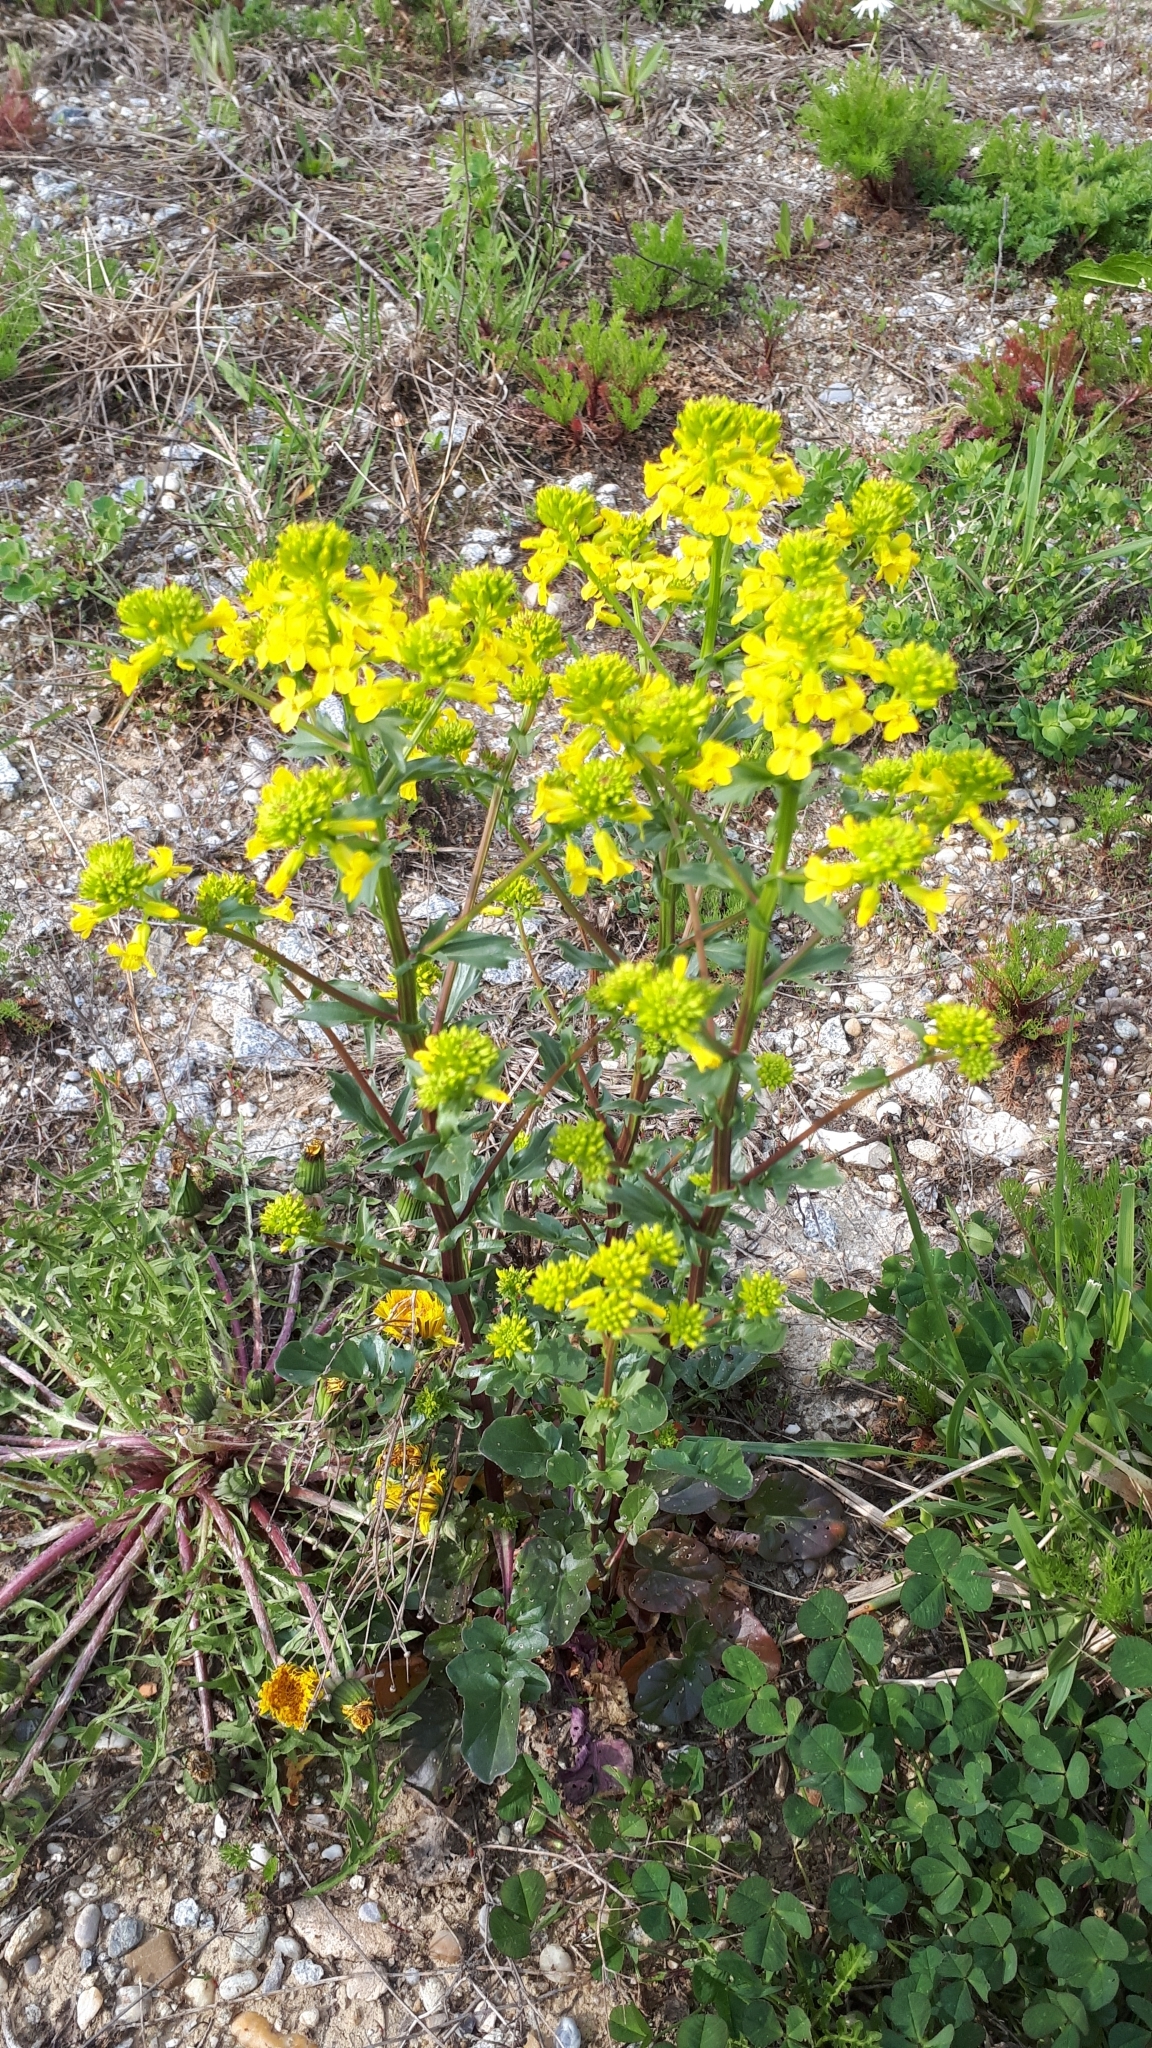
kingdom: Plantae
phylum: Tracheophyta
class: Magnoliopsida
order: Brassicales
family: Brassicaceae
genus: Barbarea
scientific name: Barbarea vulgaris
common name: Cressy-greens
